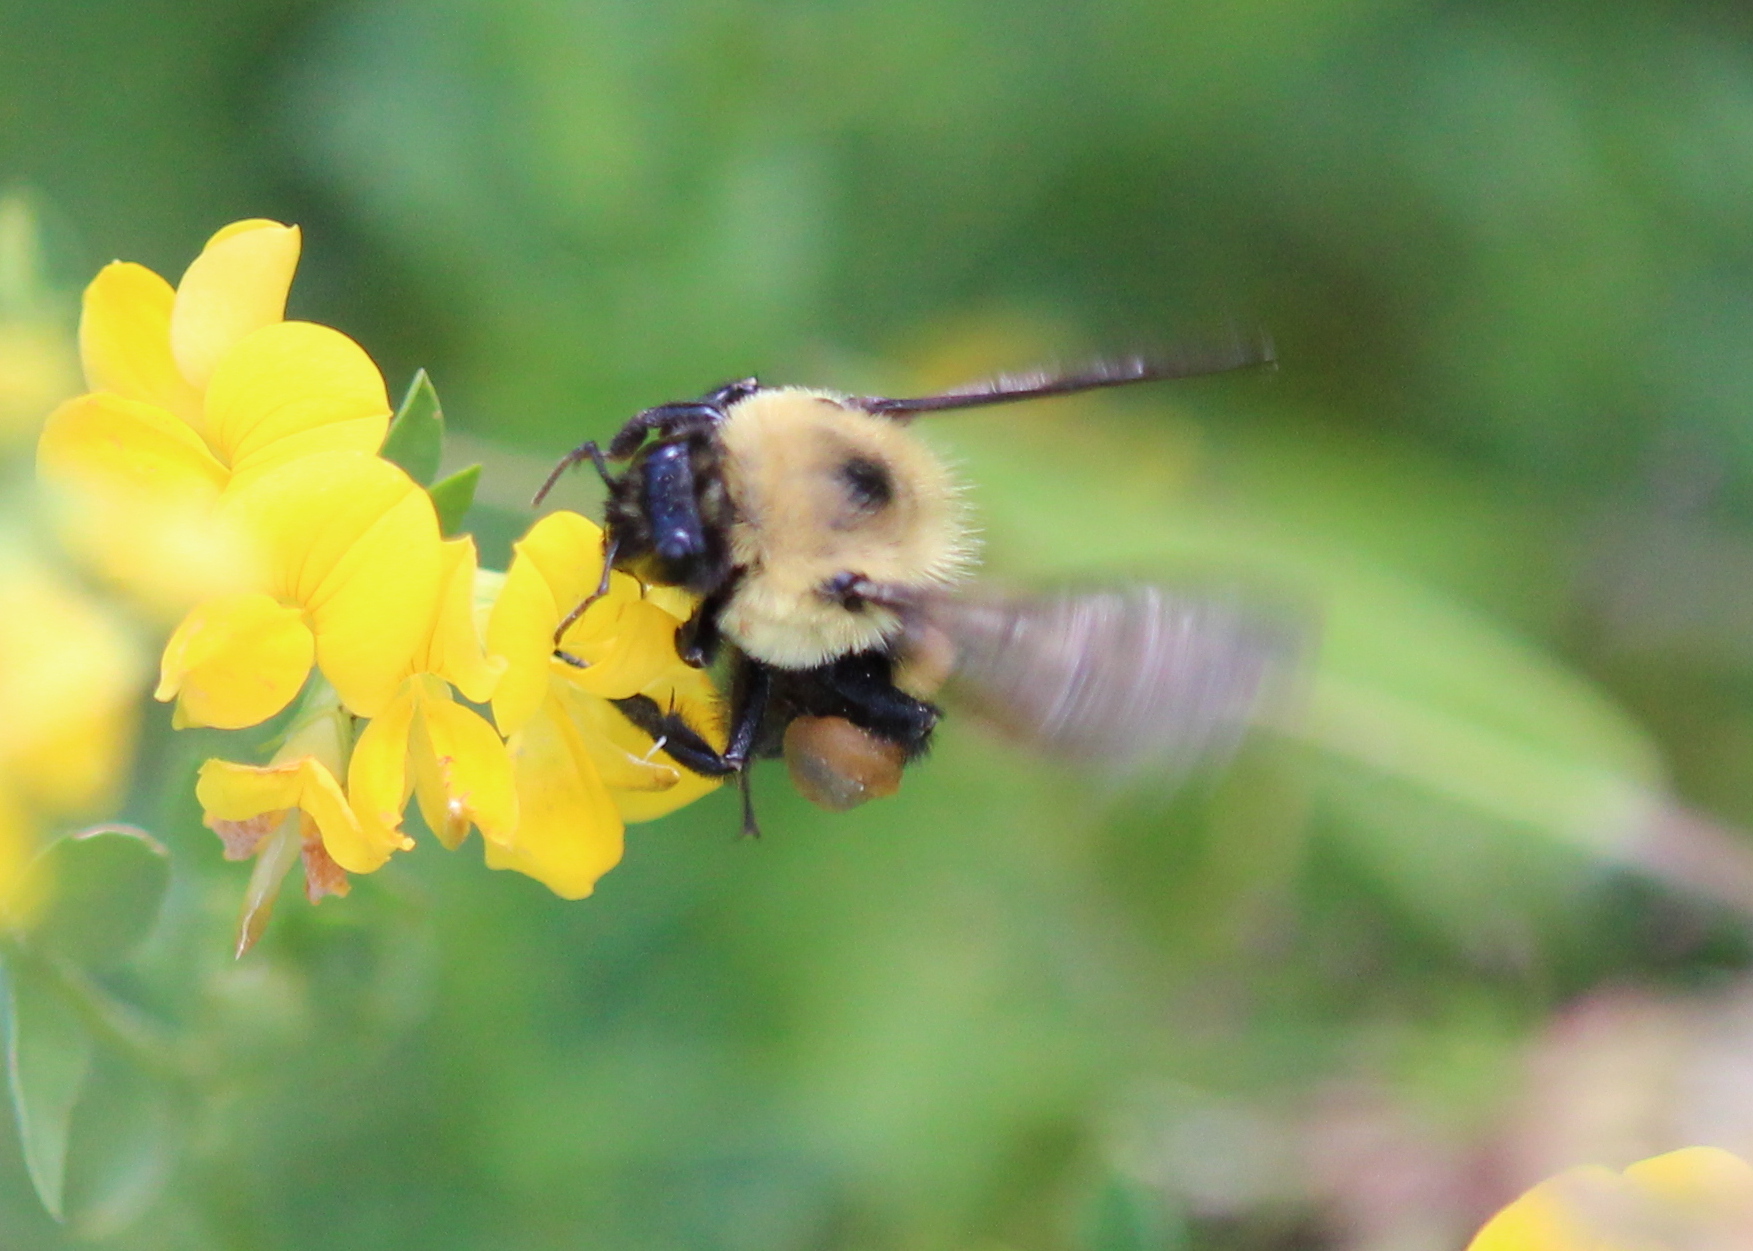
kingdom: Animalia
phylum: Arthropoda
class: Insecta
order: Hymenoptera
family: Apidae
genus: Bombus
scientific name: Bombus griseocollis
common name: Brown-belted bumble bee
